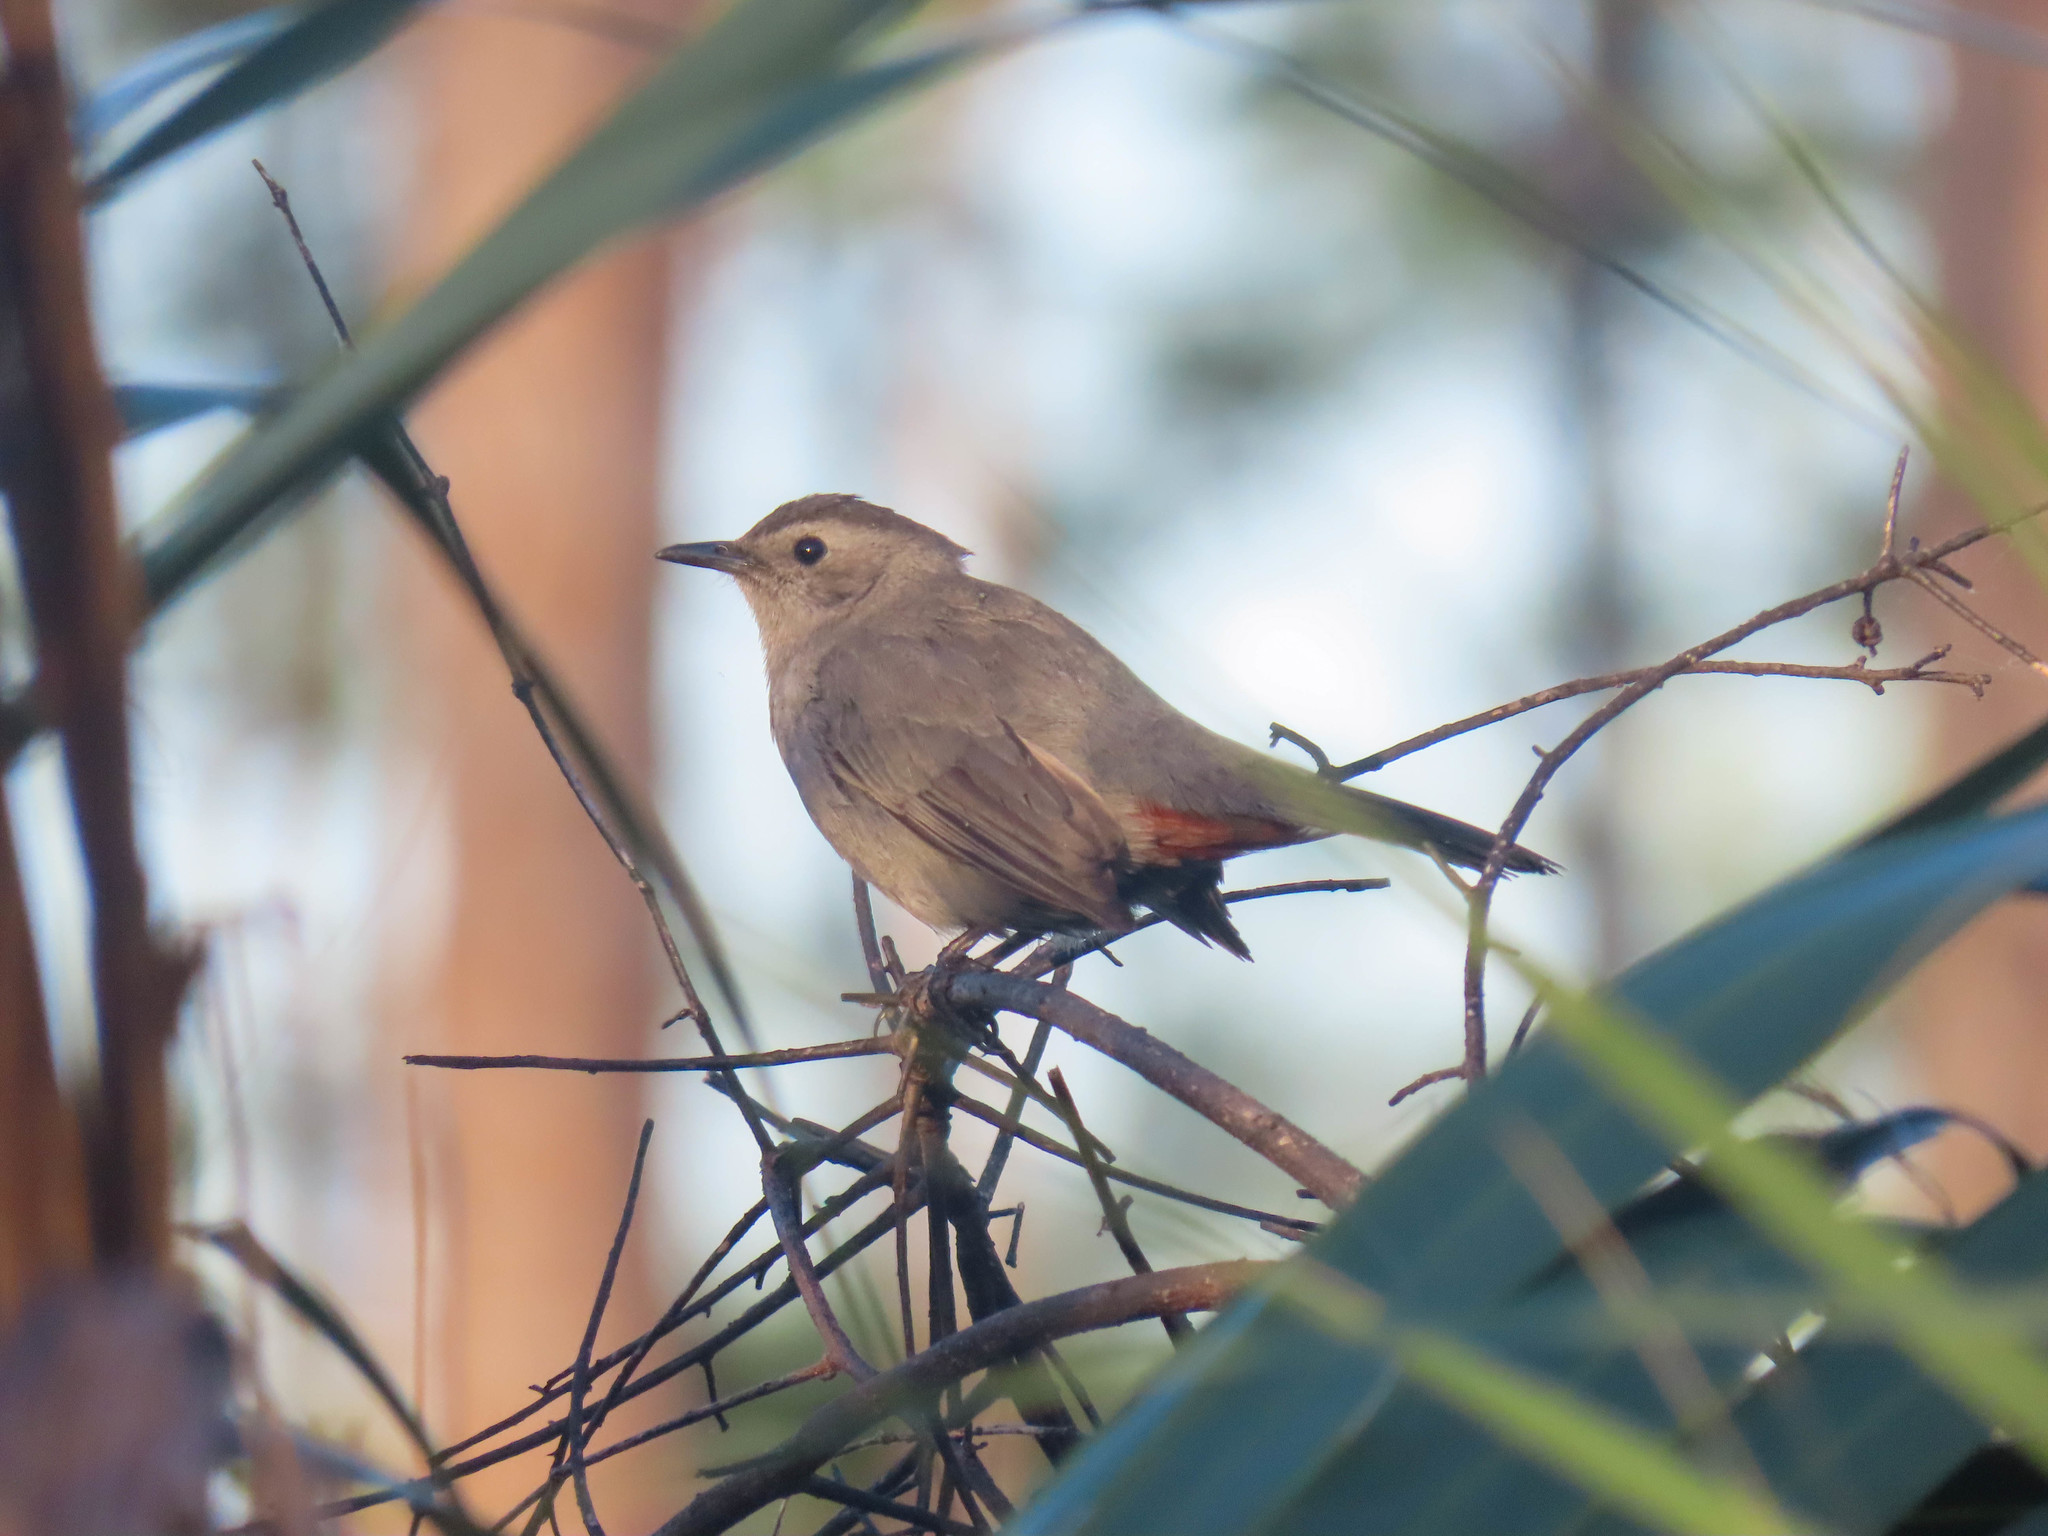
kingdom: Animalia
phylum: Chordata
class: Aves
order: Passeriformes
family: Mimidae
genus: Dumetella
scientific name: Dumetella carolinensis
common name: Gray catbird
